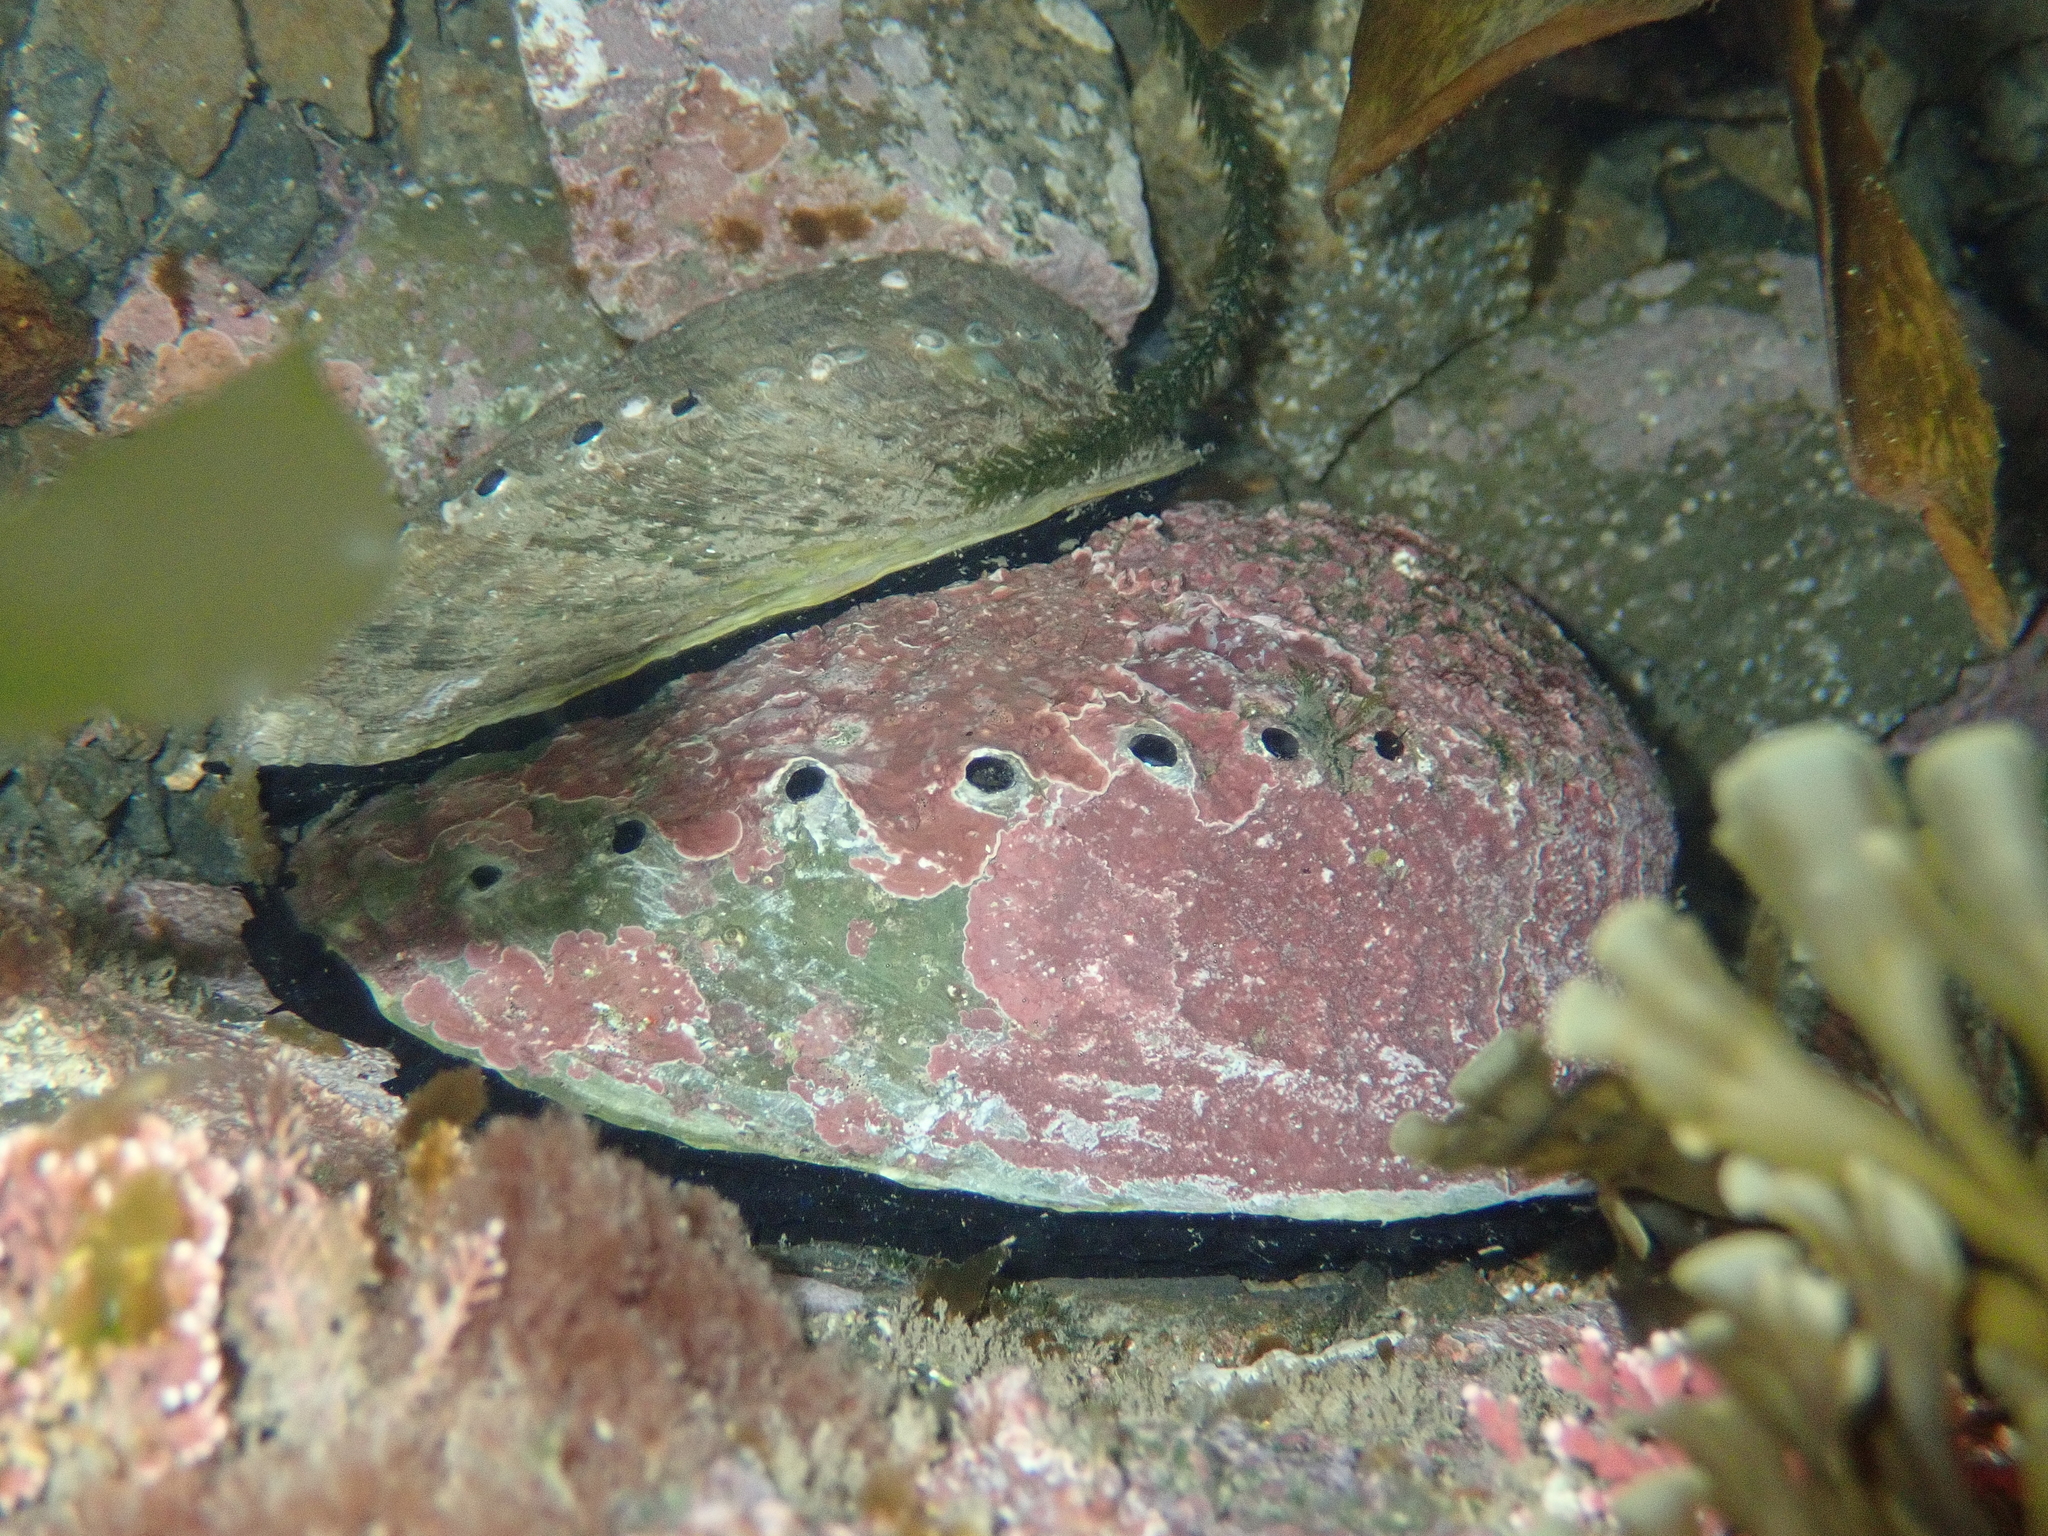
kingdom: Animalia
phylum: Mollusca
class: Gastropoda
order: Lepetellida
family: Haliotidae
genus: Haliotis
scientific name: Haliotis iris
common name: Abalone
